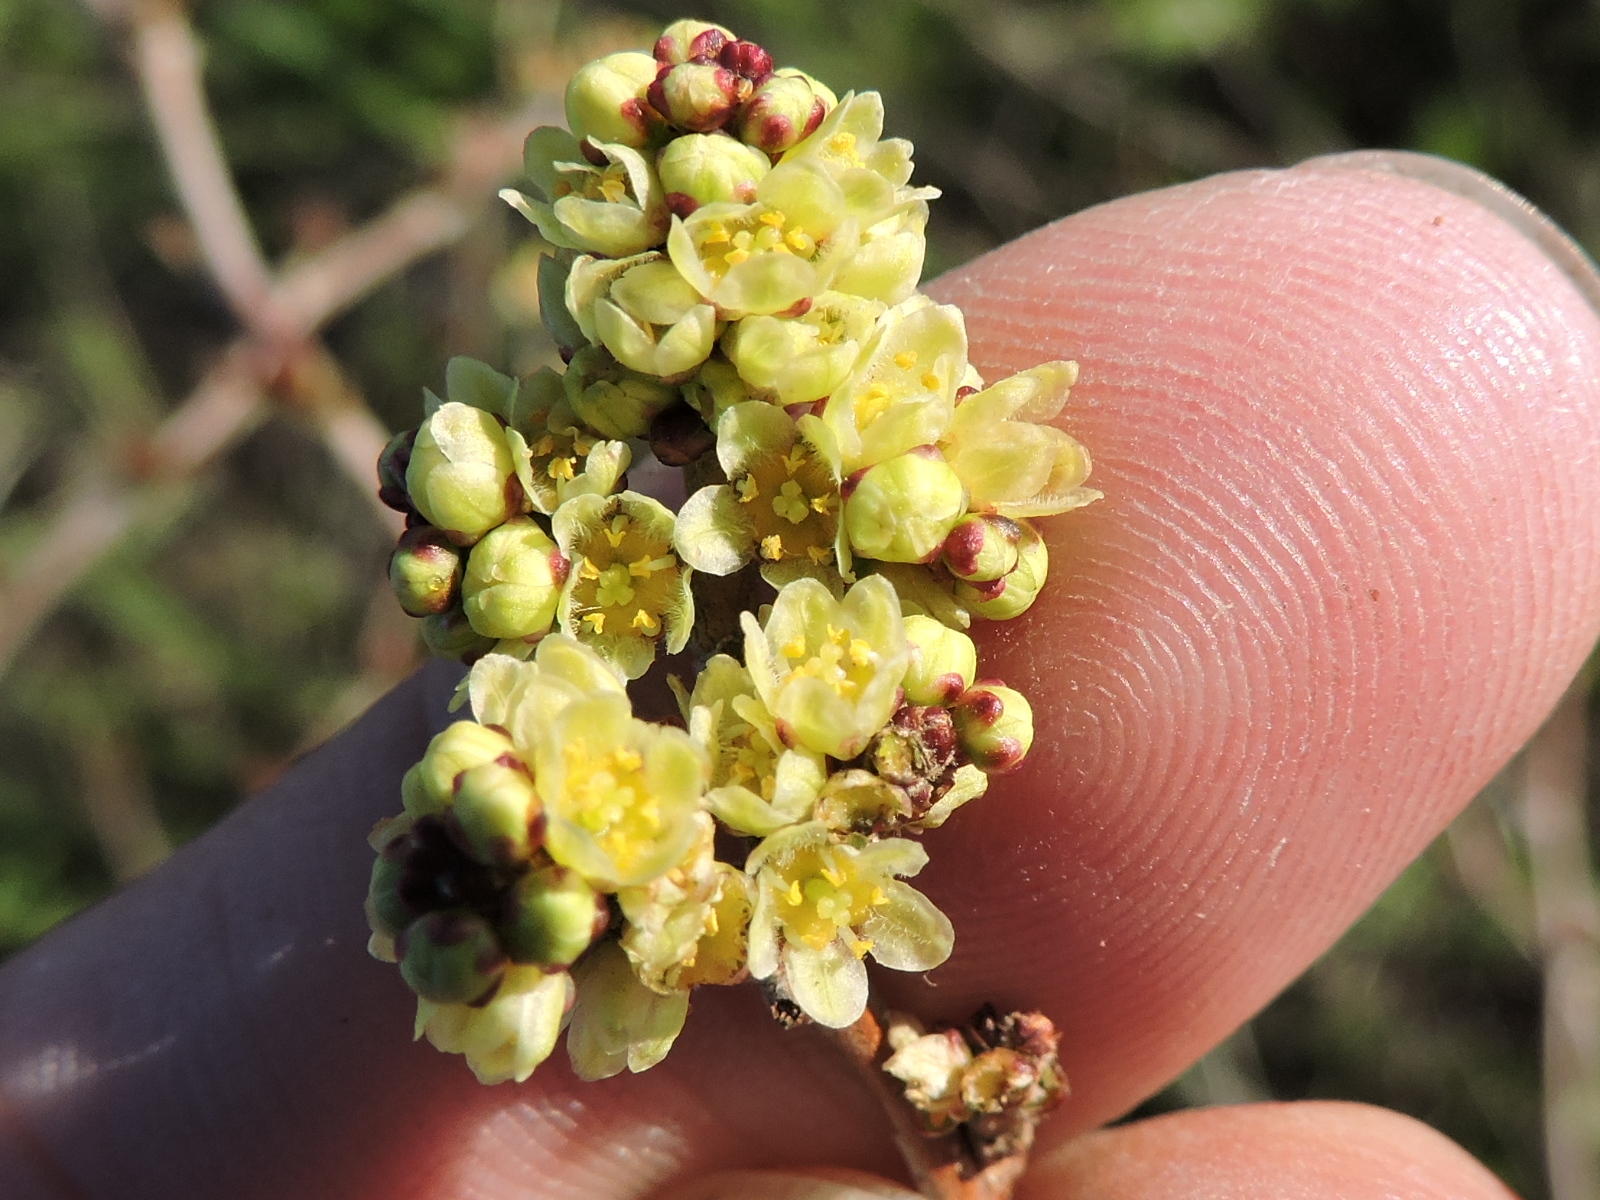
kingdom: Plantae
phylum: Tracheophyta
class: Magnoliopsida
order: Sapindales
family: Anacardiaceae
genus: Rhus
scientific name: Rhus aromatica
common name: Aromatic sumac
